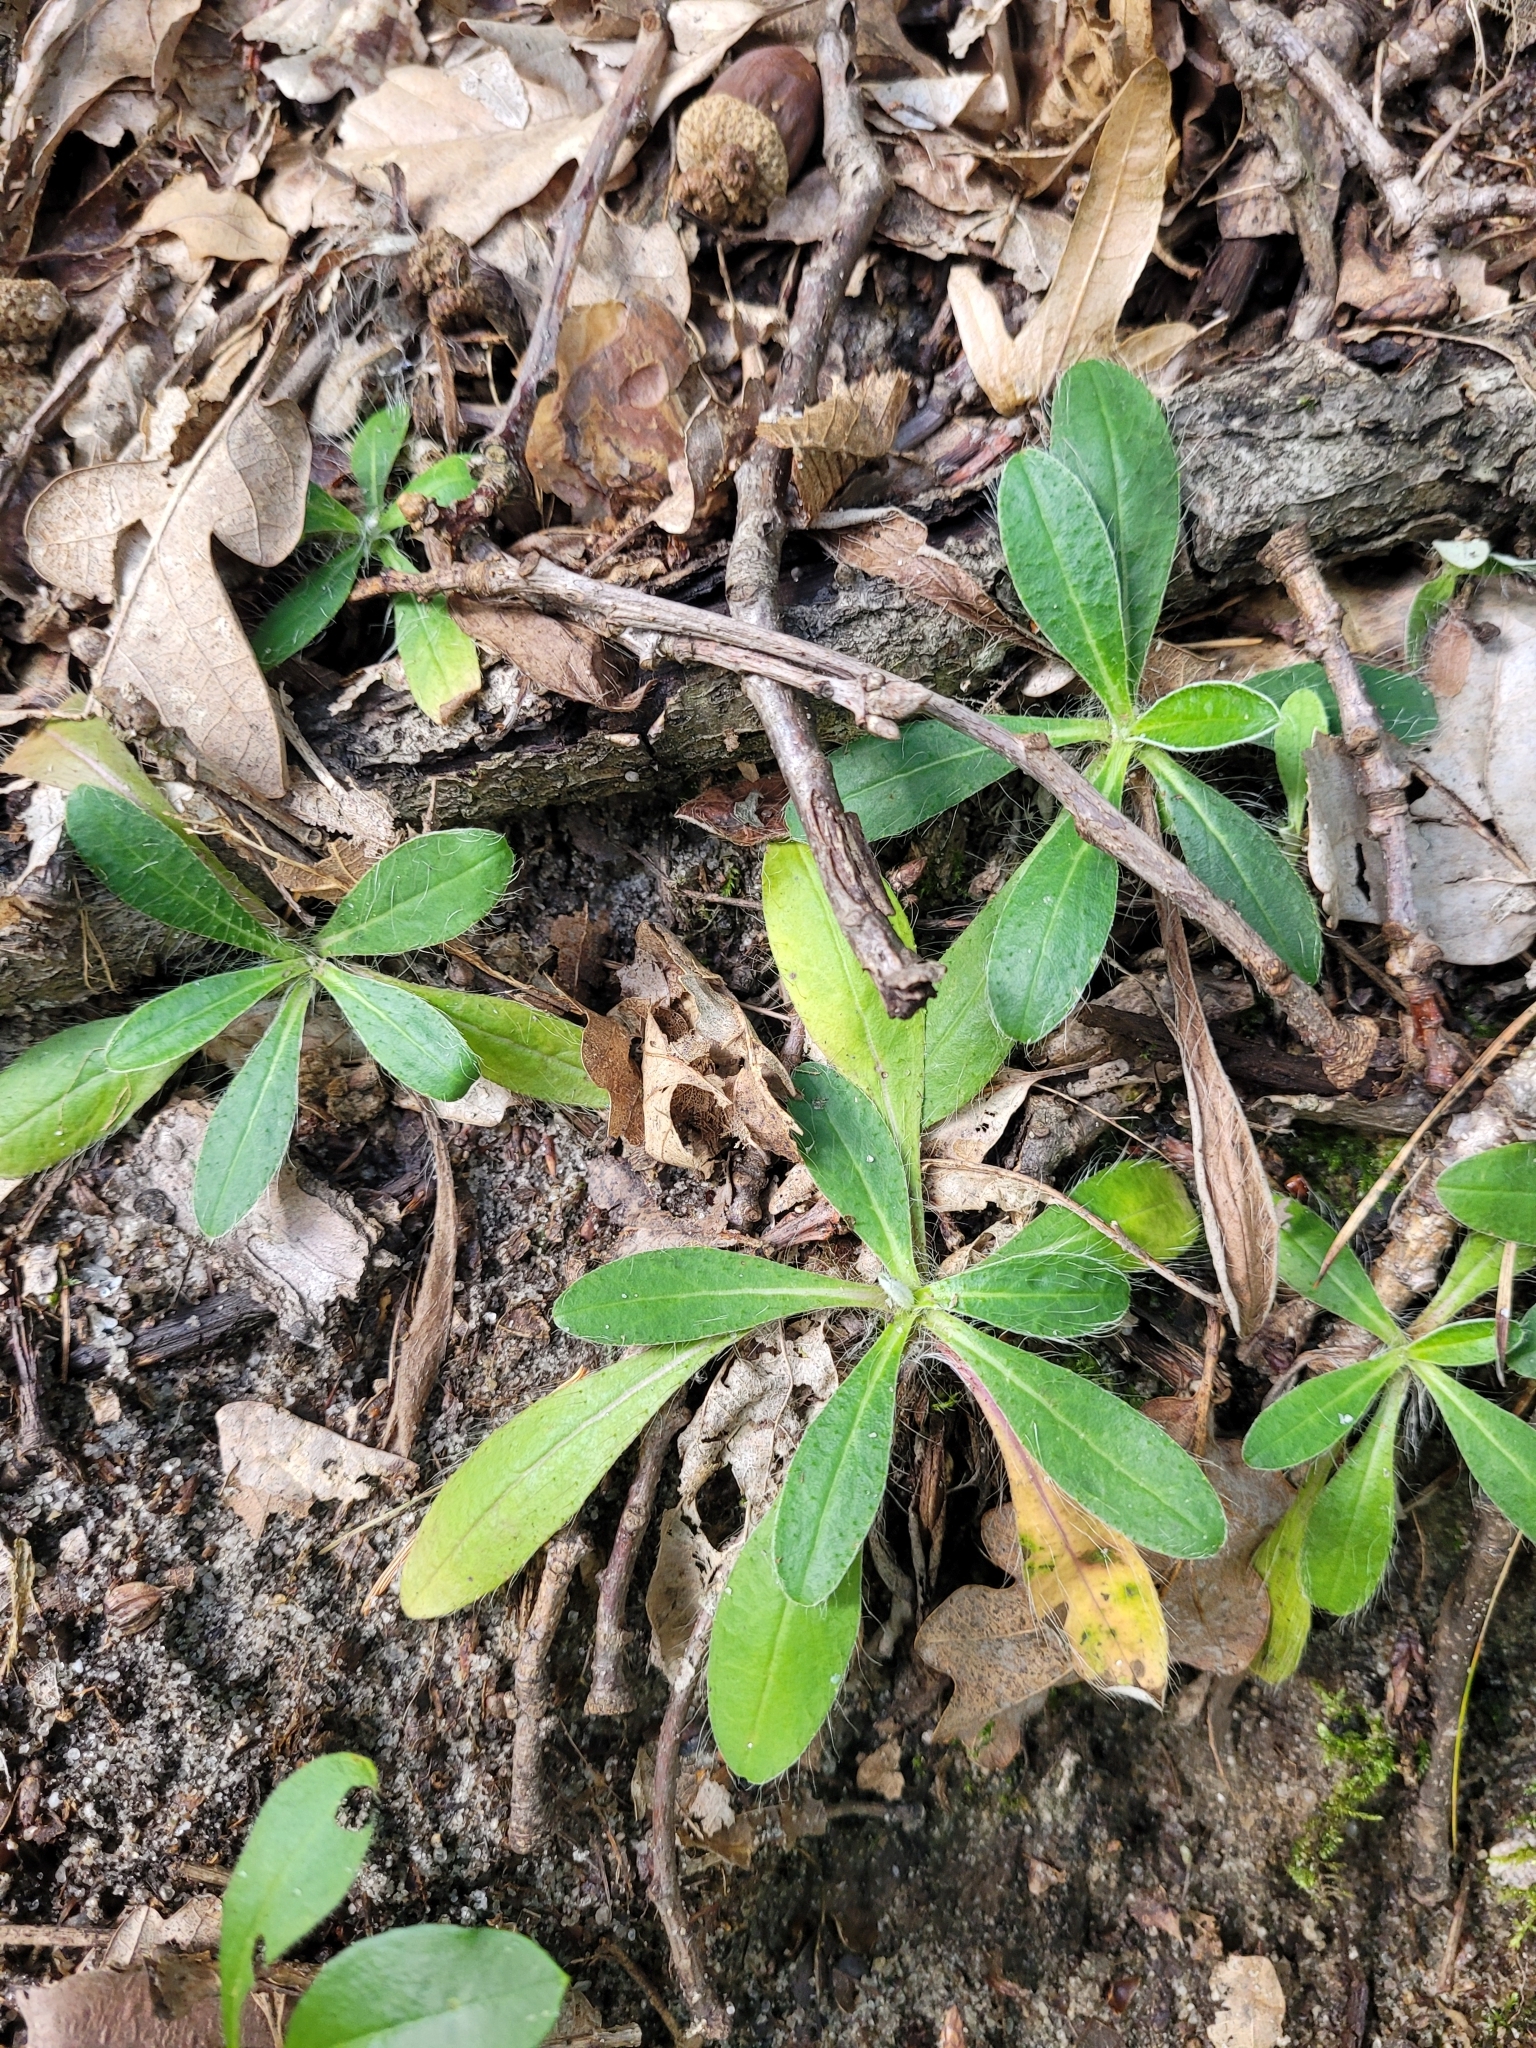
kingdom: Plantae
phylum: Tracheophyta
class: Magnoliopsida
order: Asterales
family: Asteraceae
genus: Pilosella
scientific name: Pilosella officinarum
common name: Mouse-ear hawkweed
